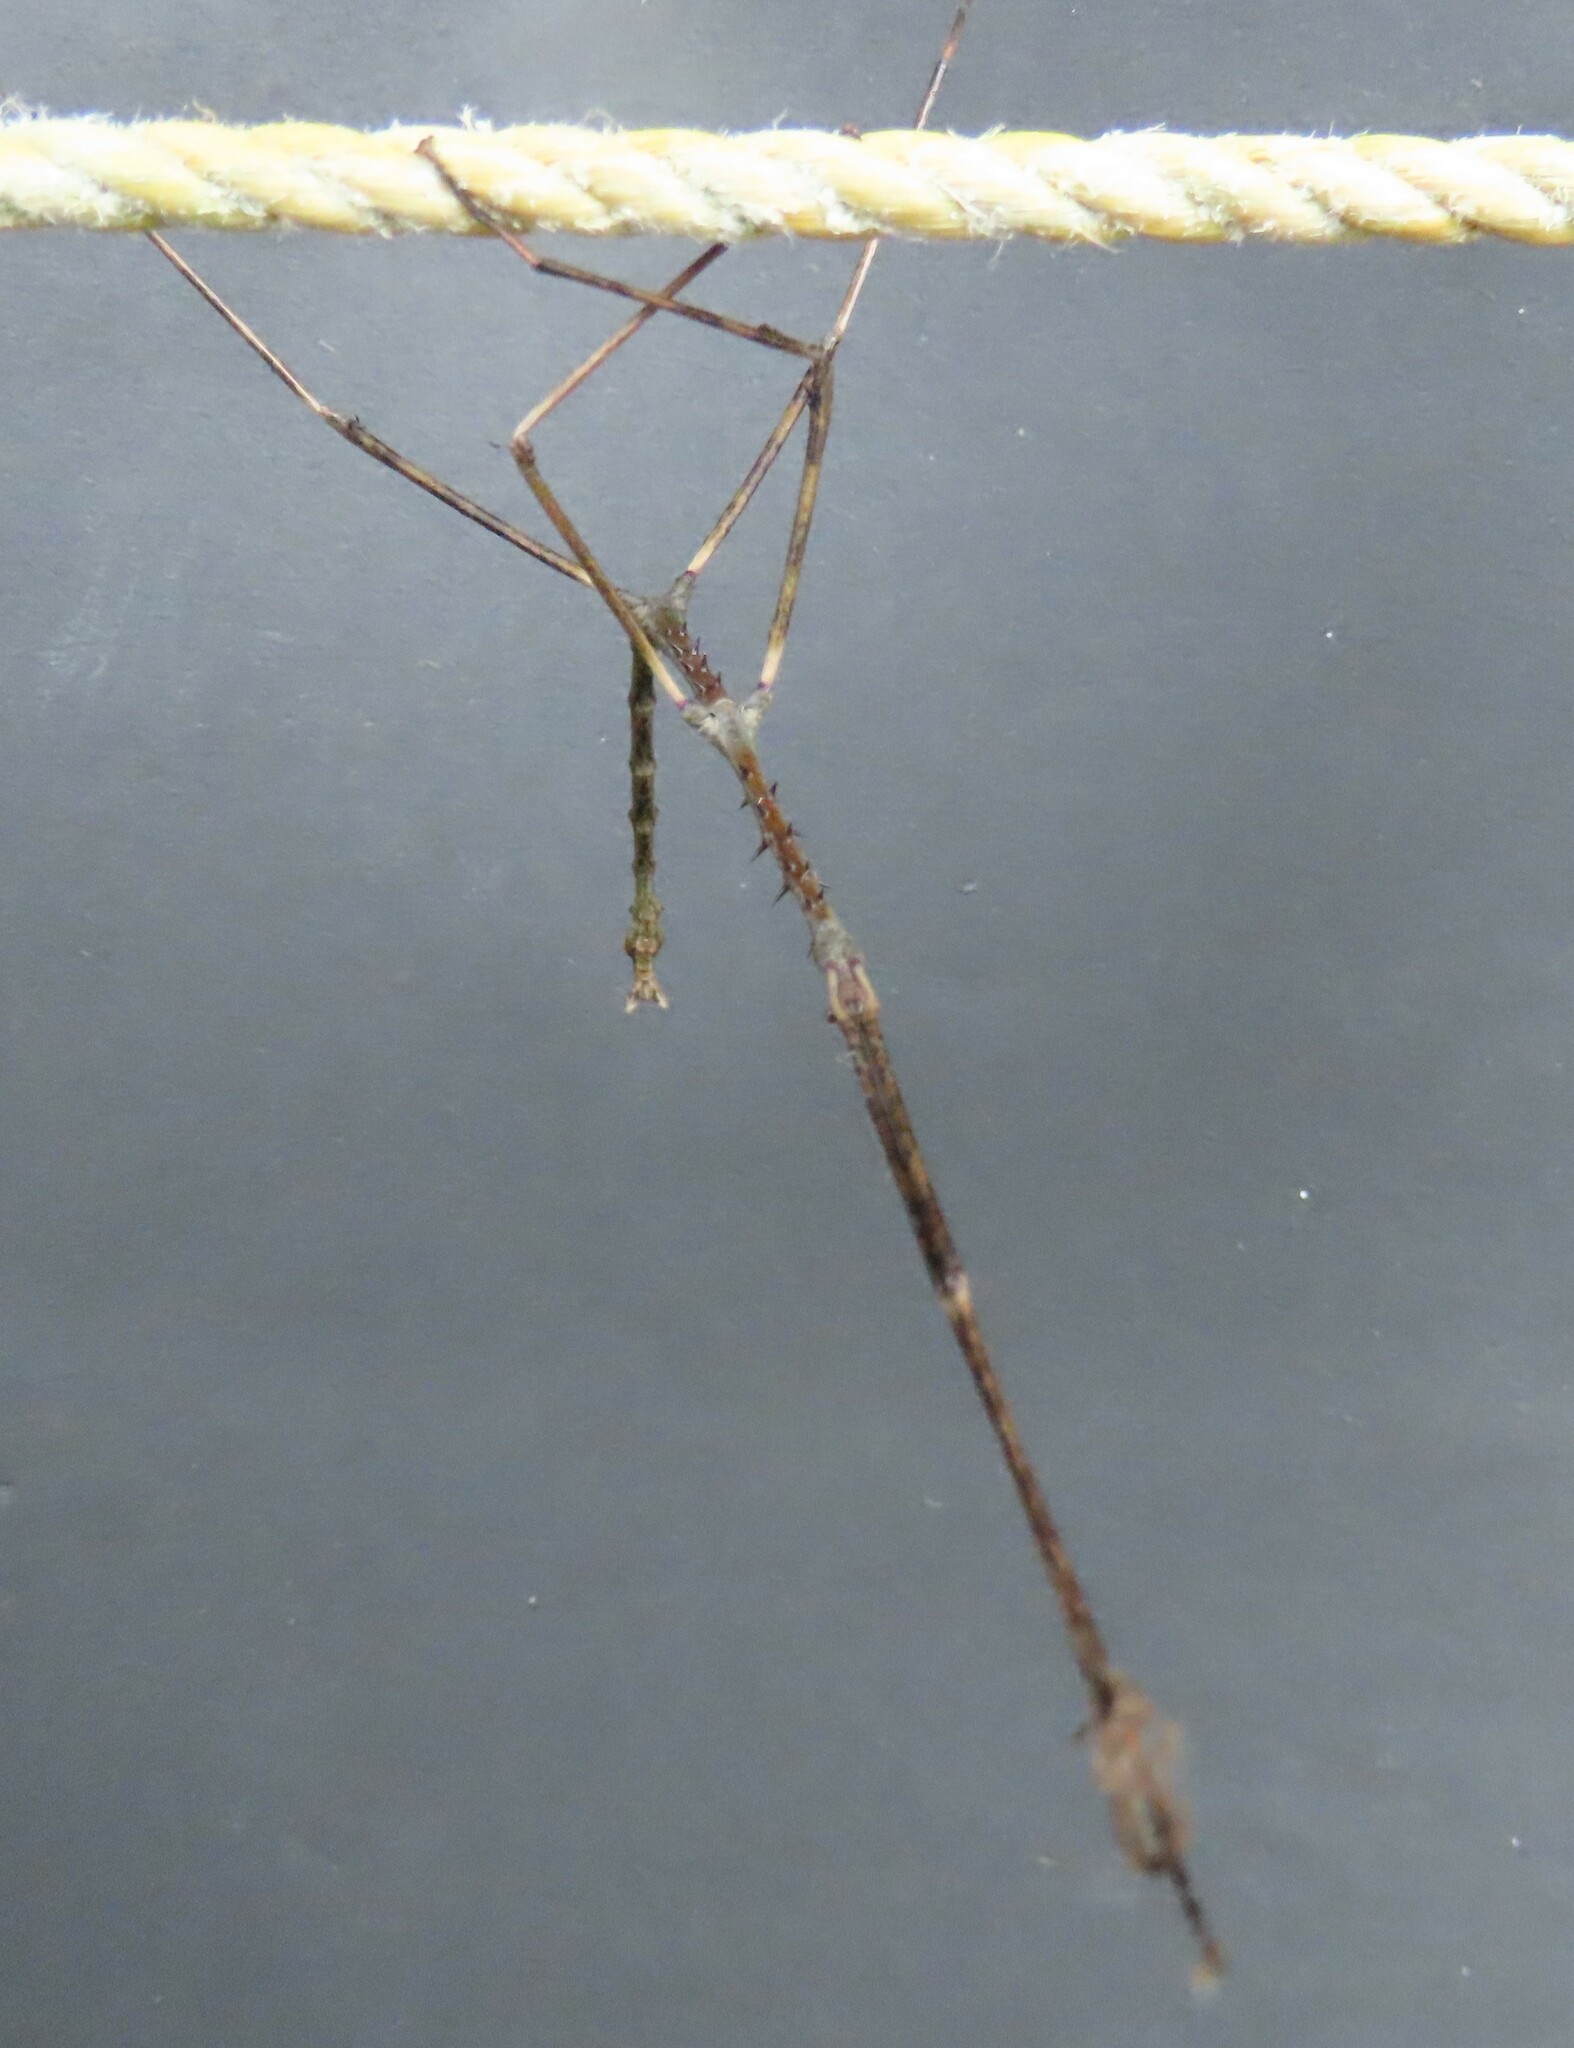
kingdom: Animalia
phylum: Arthropoda
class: Insecta
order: Phasmida
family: Phasmatidae
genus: Argosarchus
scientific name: Argosarchus horridus
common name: Bristly stick insect
